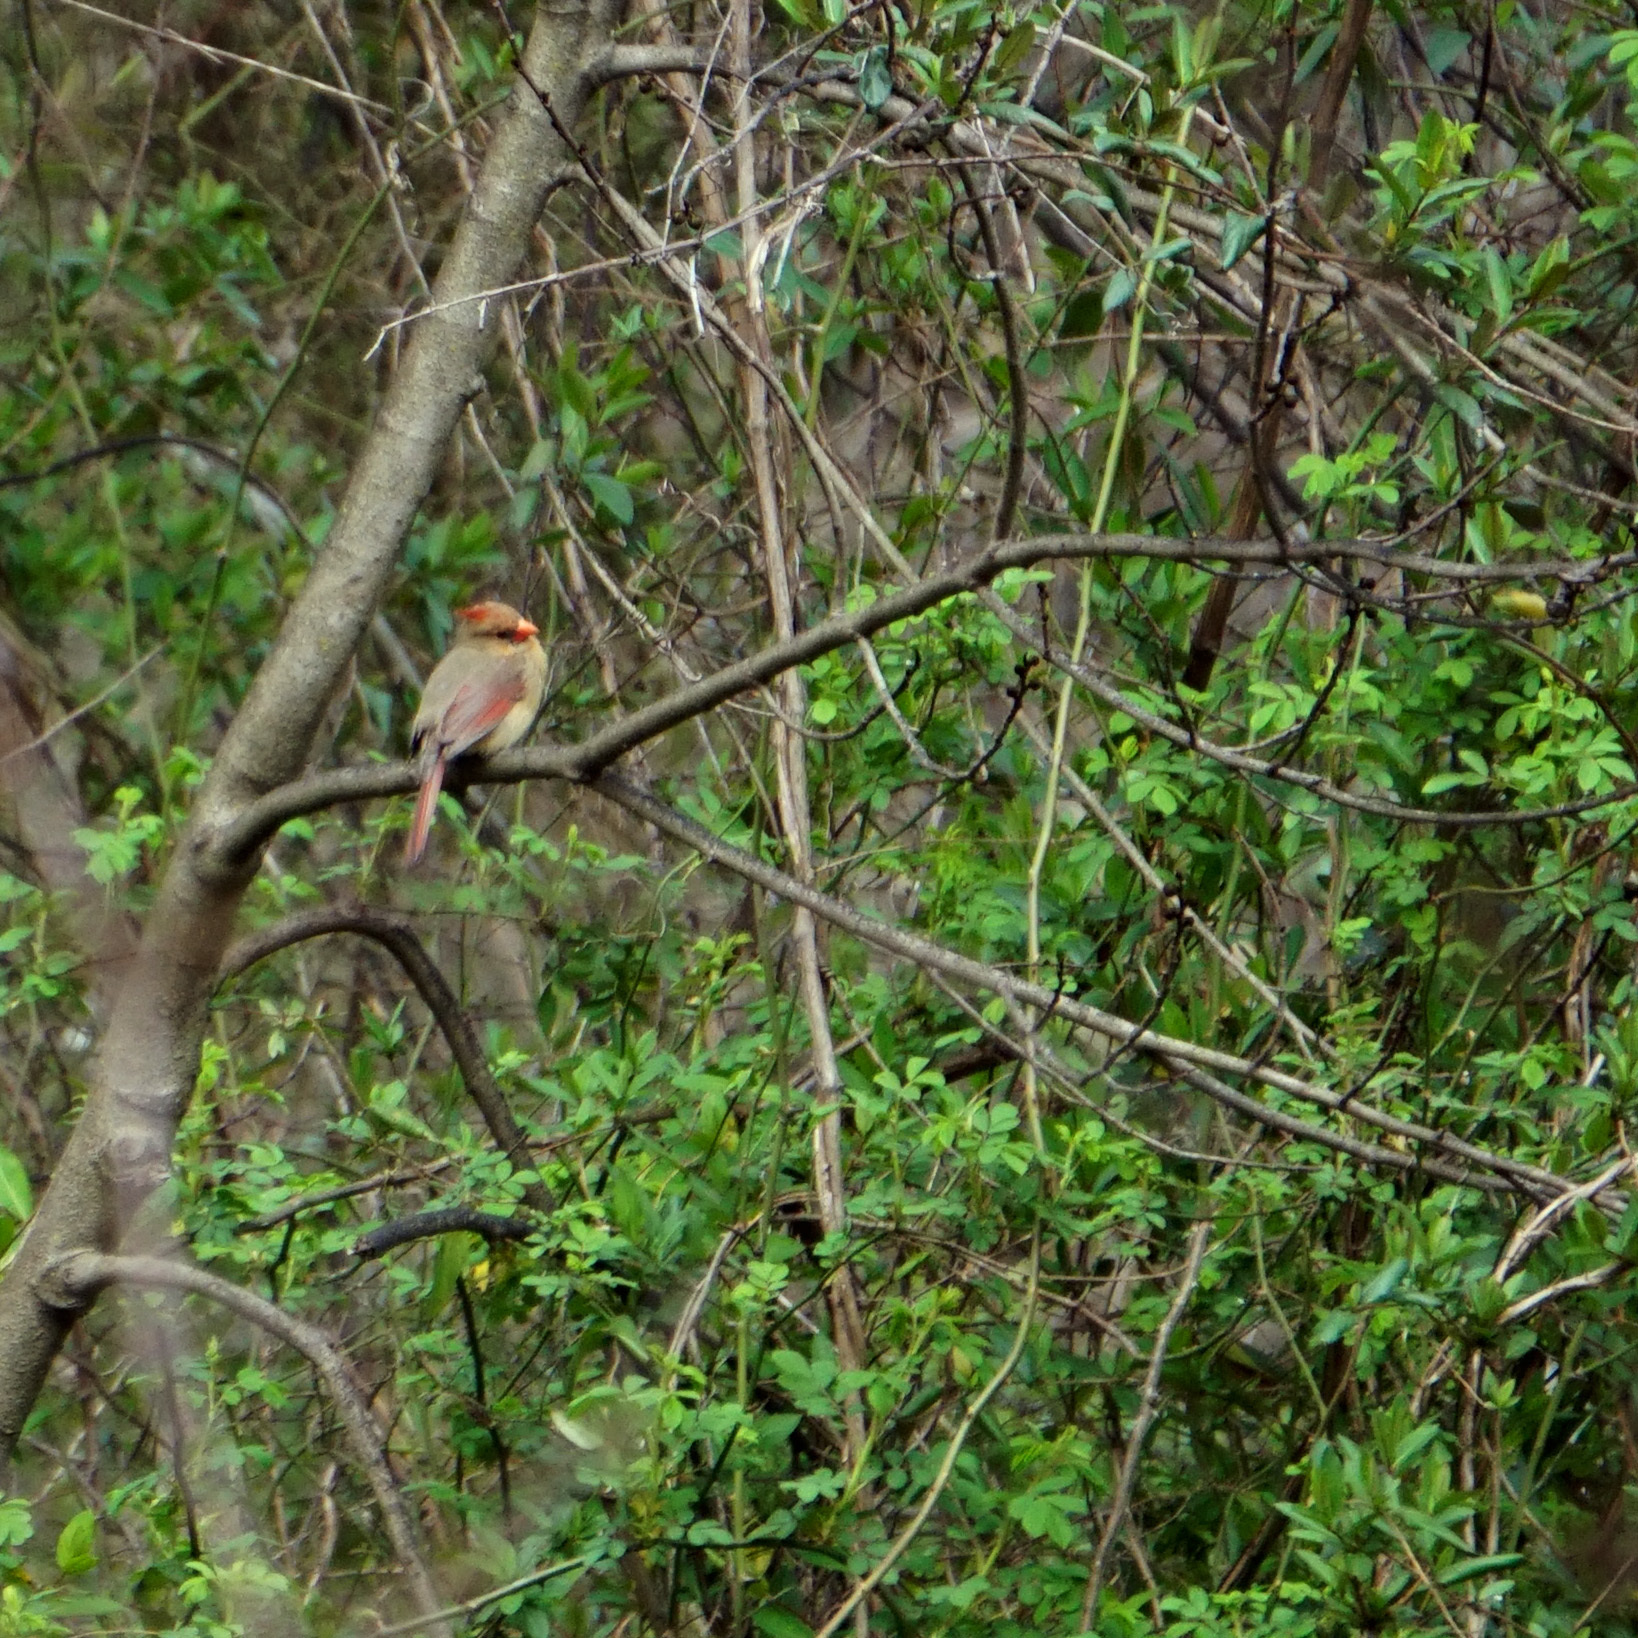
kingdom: Animalia
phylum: Chordata
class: Aves
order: Passeriformes
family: Cardinalidae
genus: Cardinalis
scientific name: Cardinalis cardinalis
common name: Northern cardinal
